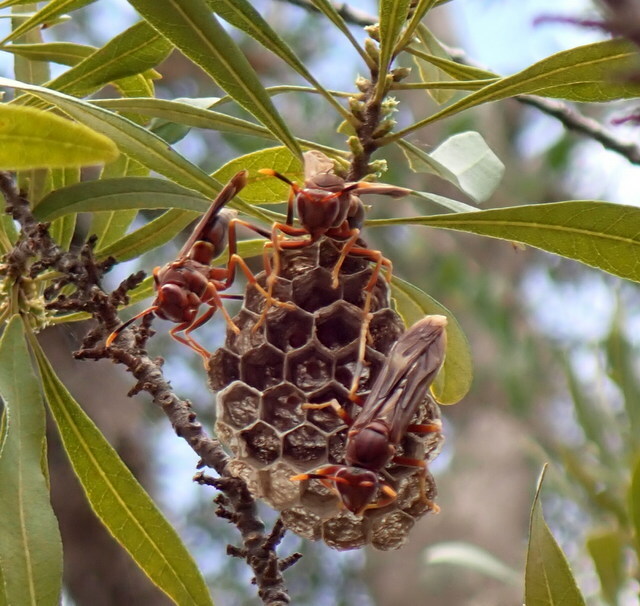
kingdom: Animalia
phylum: Arthropoda
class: Insecta
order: Hymenoptera
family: Eumenidae
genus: Polistes
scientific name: Polistes annularis
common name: Ringed paper wasp
